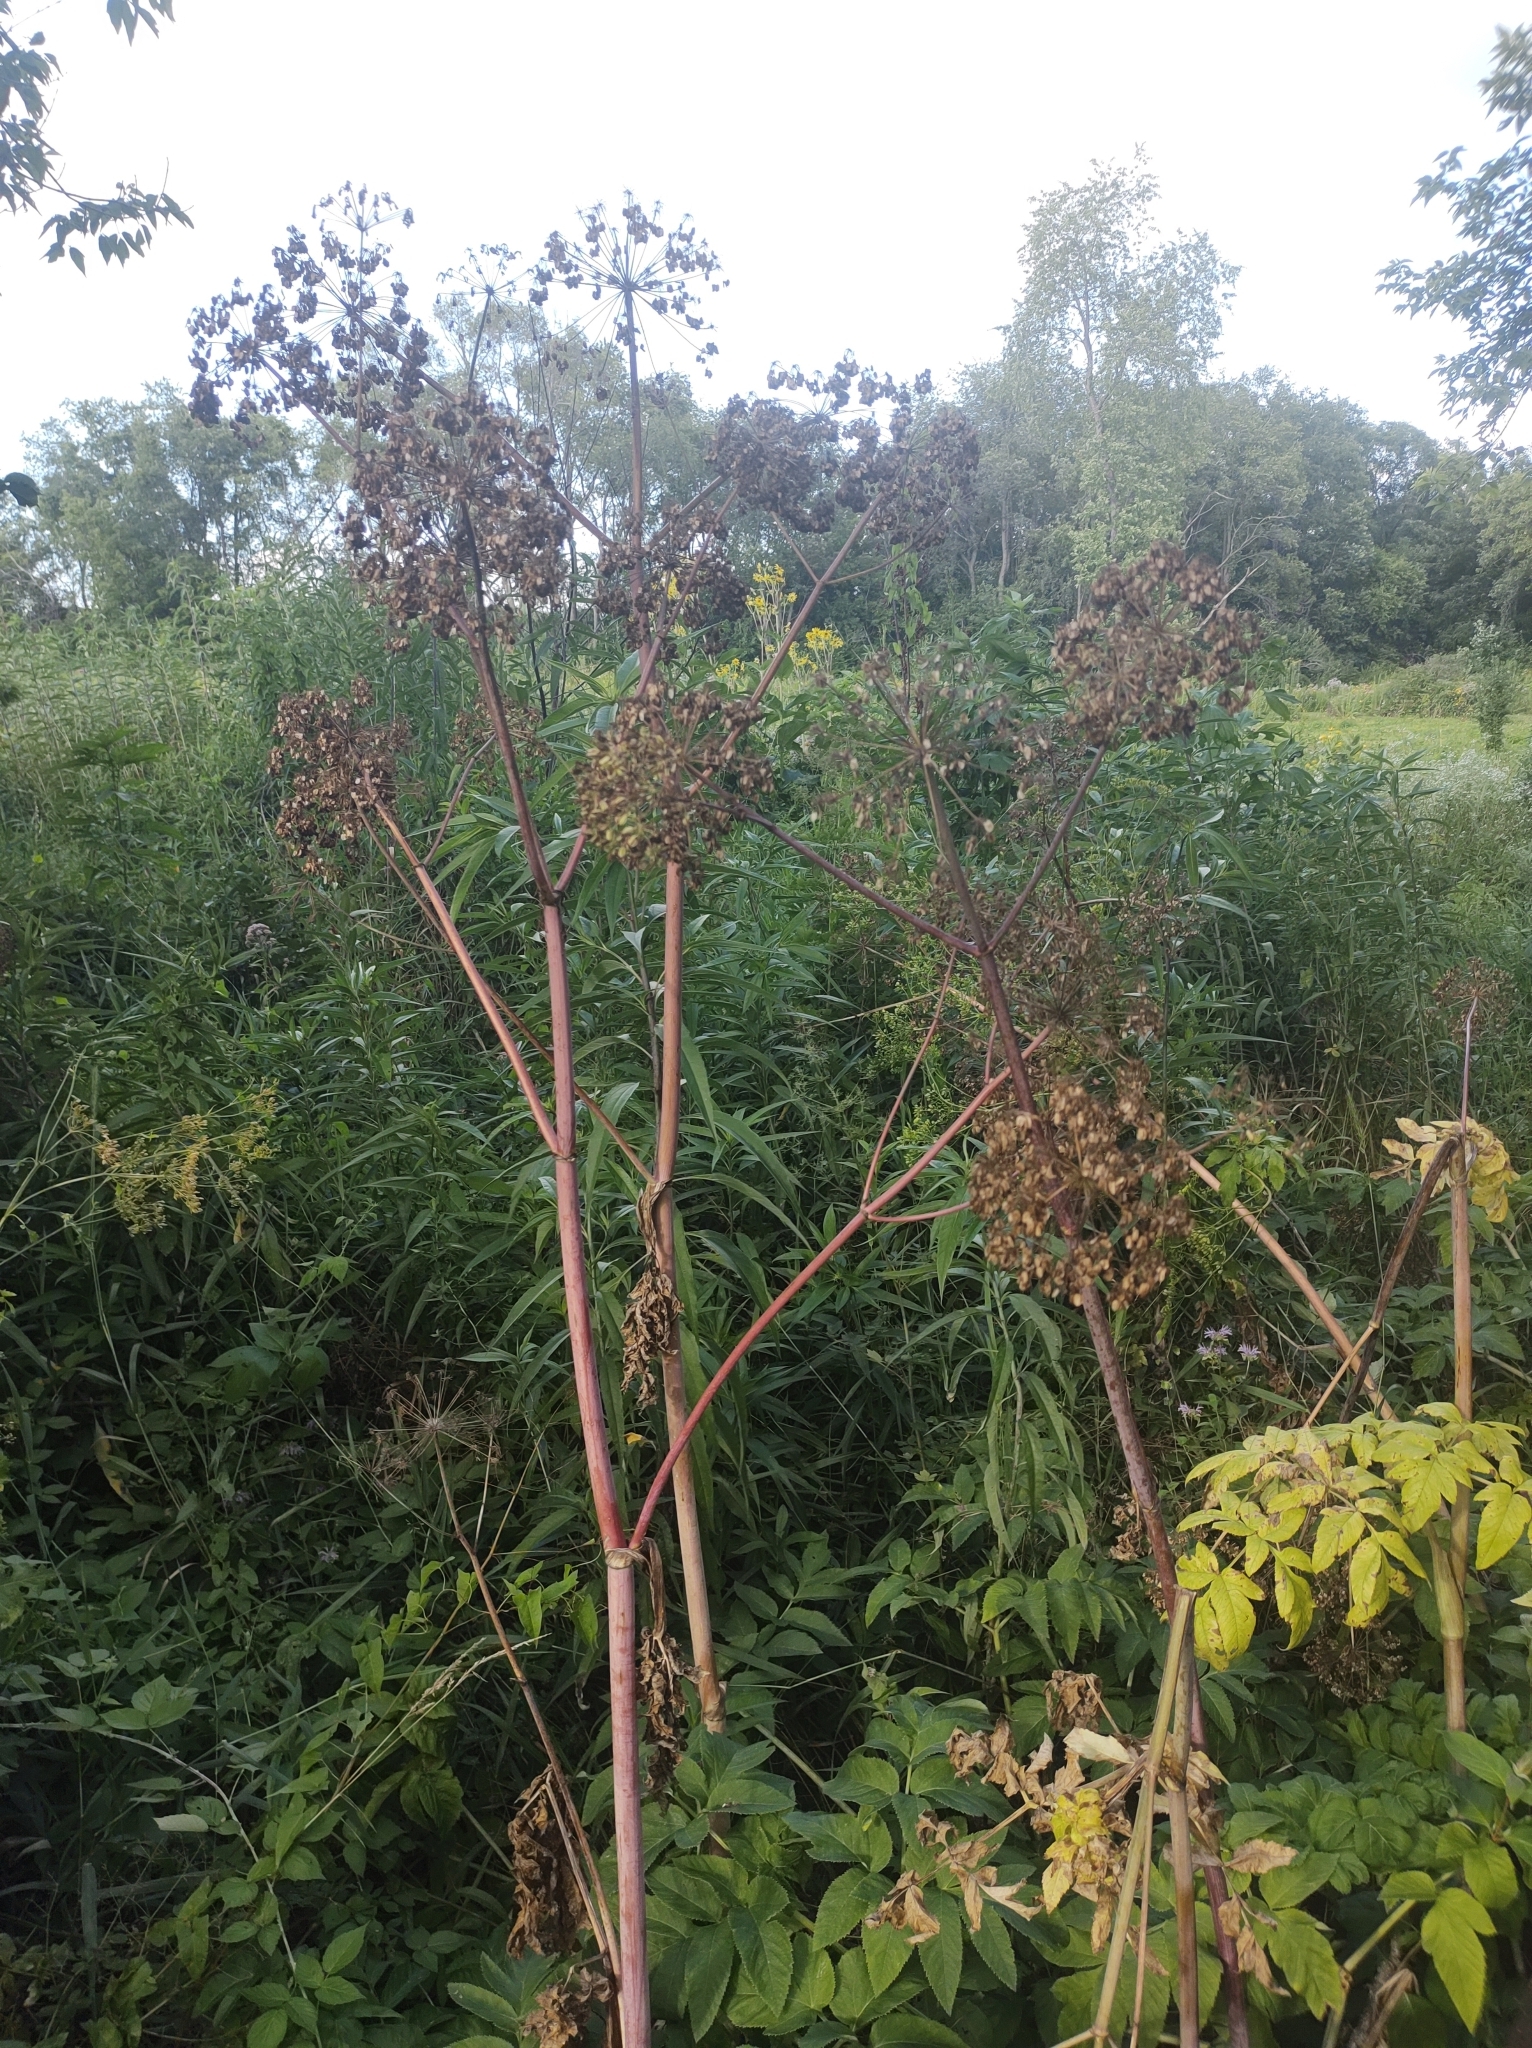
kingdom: Plantae
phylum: Tracheophyta
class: Magnoliopsida
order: Apiales
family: Apiaceae
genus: Angelica
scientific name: Angelica atropurpurea
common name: Great angelica
